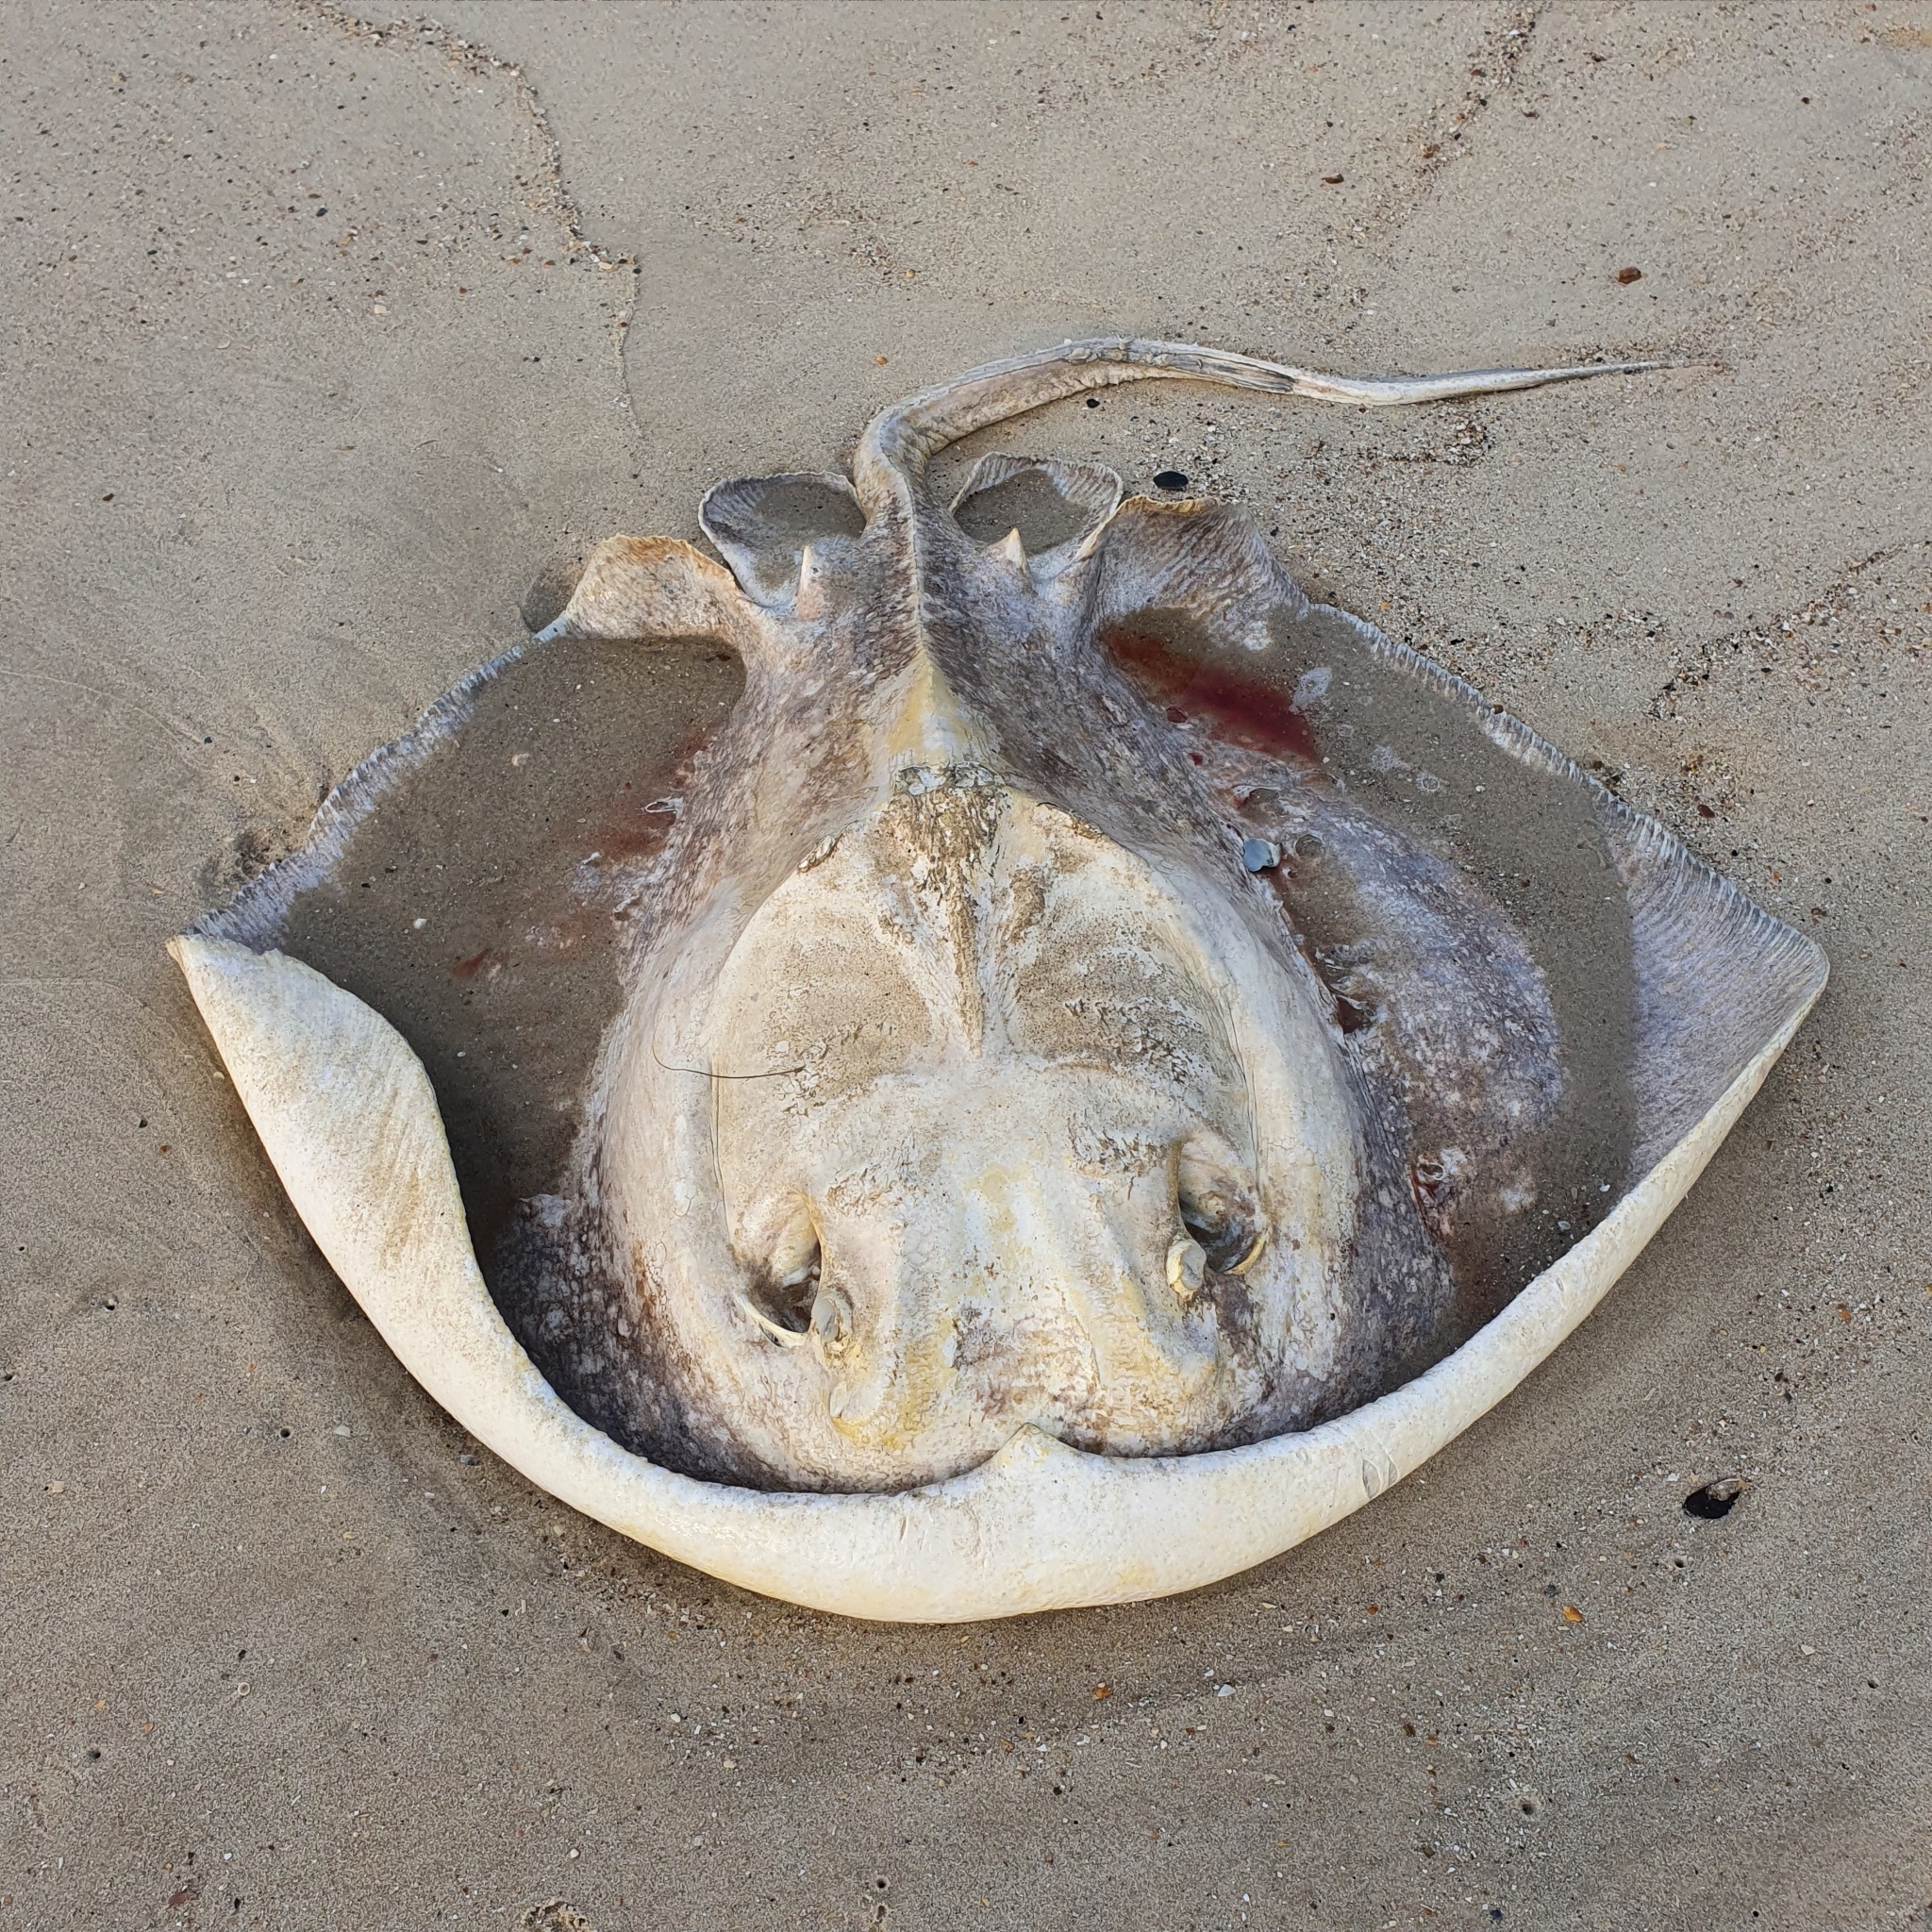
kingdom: Animalia
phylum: Chordata
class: Elasmobranchii
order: Myliobatiformes
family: Dasyatidae
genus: Bathytoshia
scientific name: Bathytoshia brevicaudata
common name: Short-tail stingray
